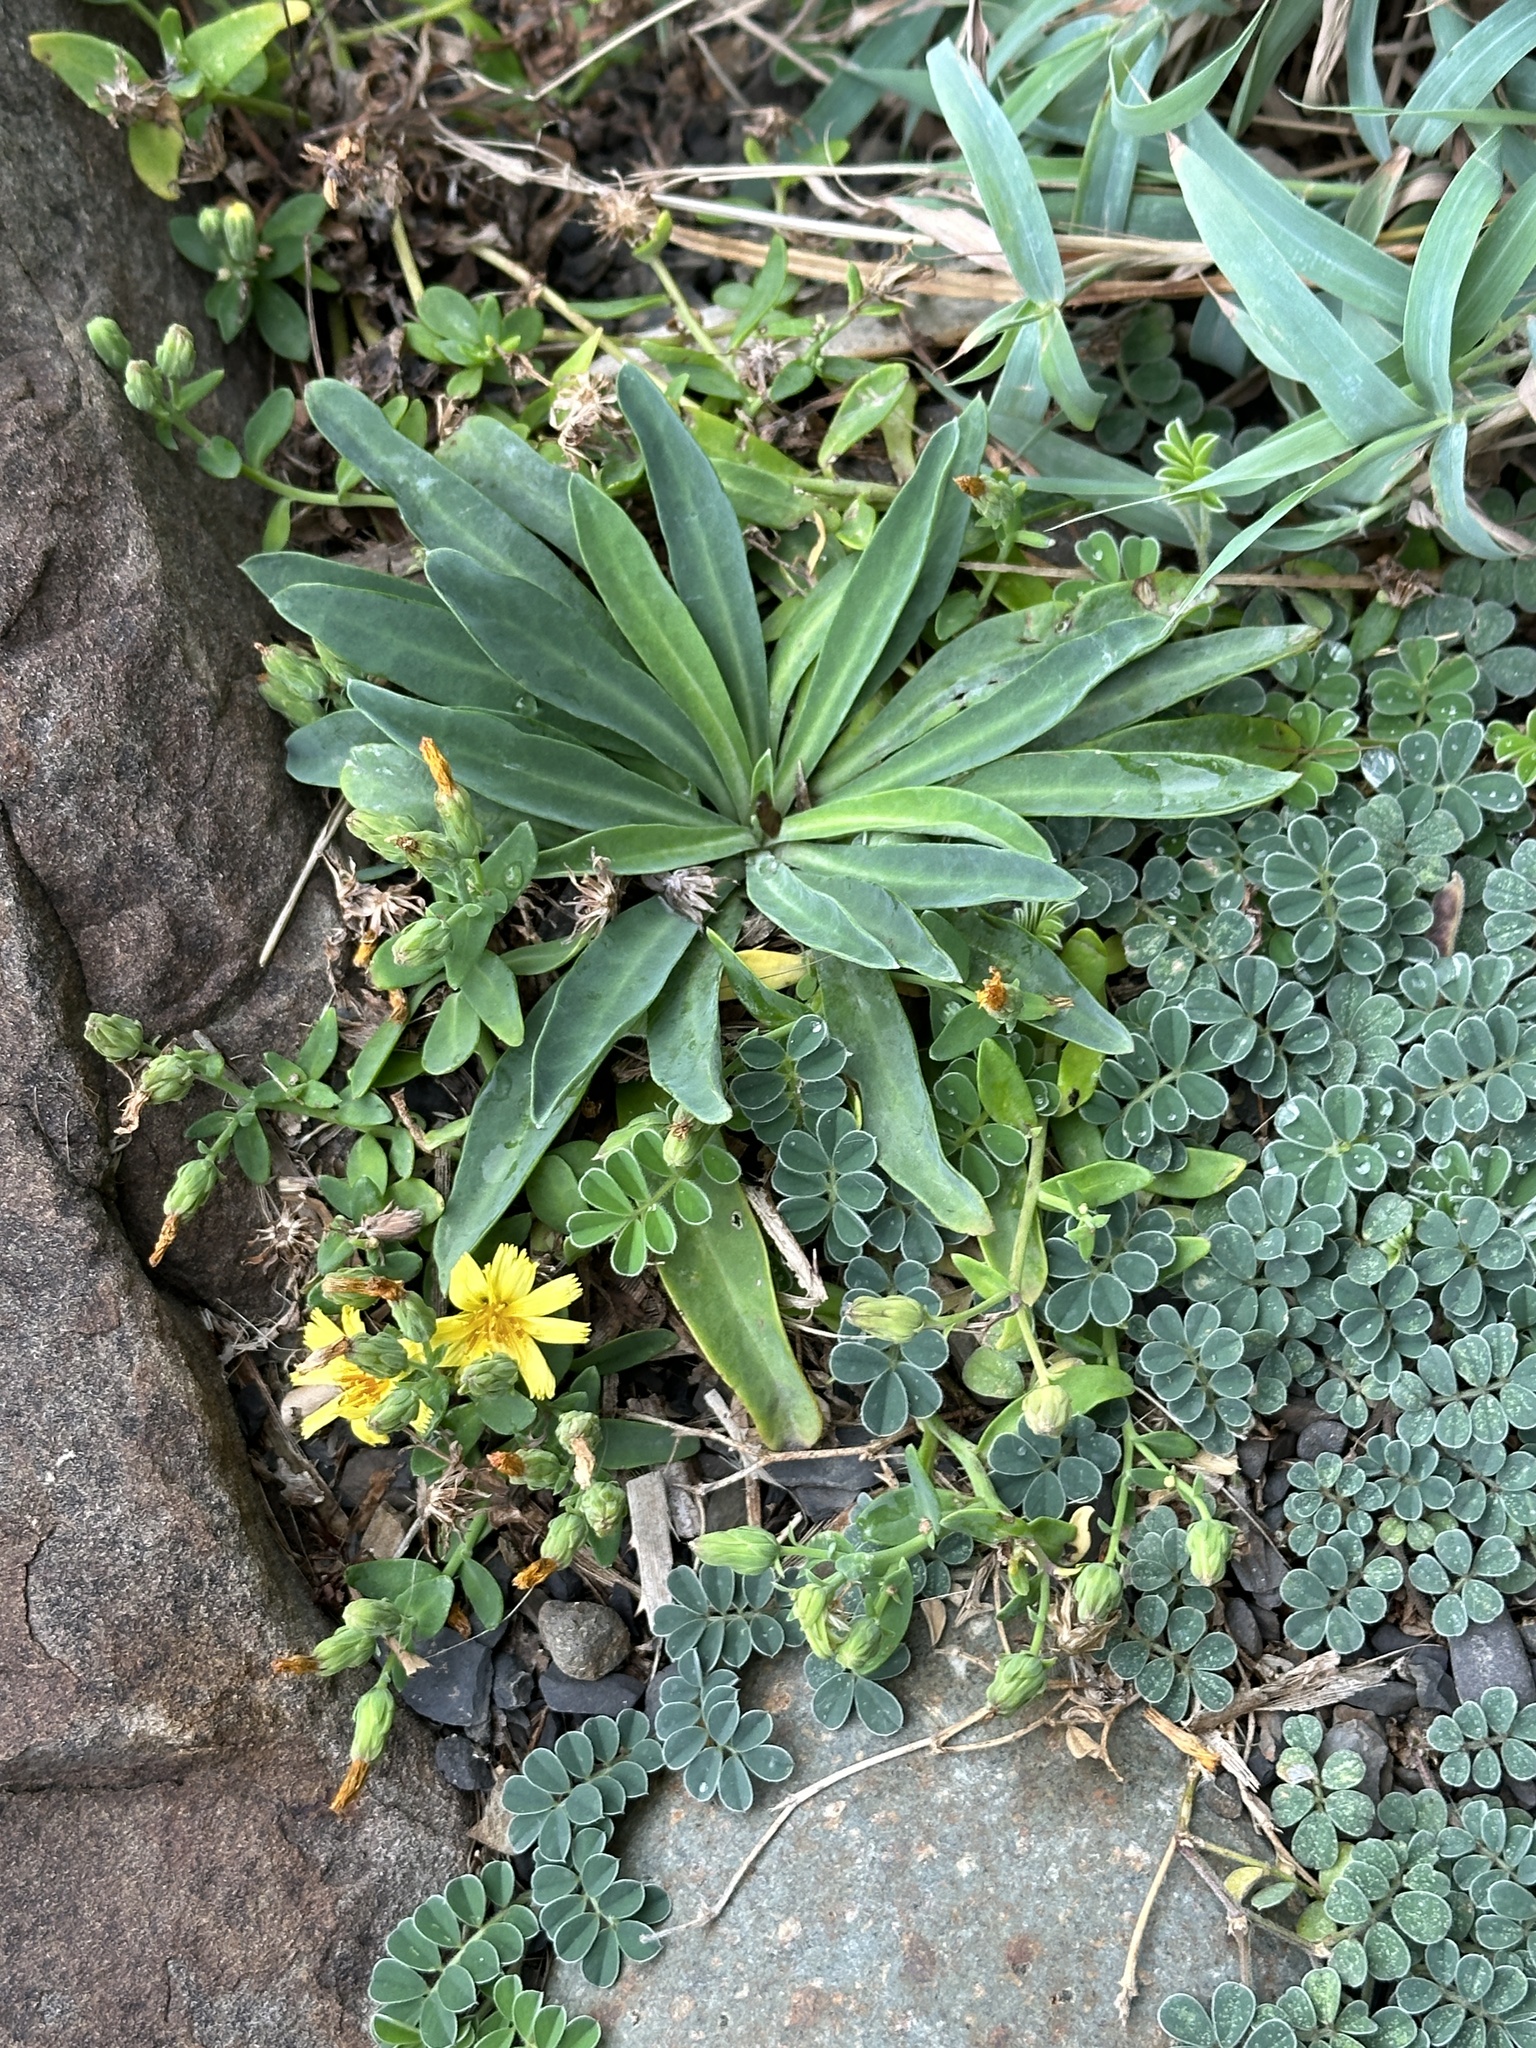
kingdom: Plantae
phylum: Tracheophyta
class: Magnoliopsida
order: Asterales
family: Asteraceae
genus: Crepidiastrum
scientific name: Crepidiastrum taiwanianum
